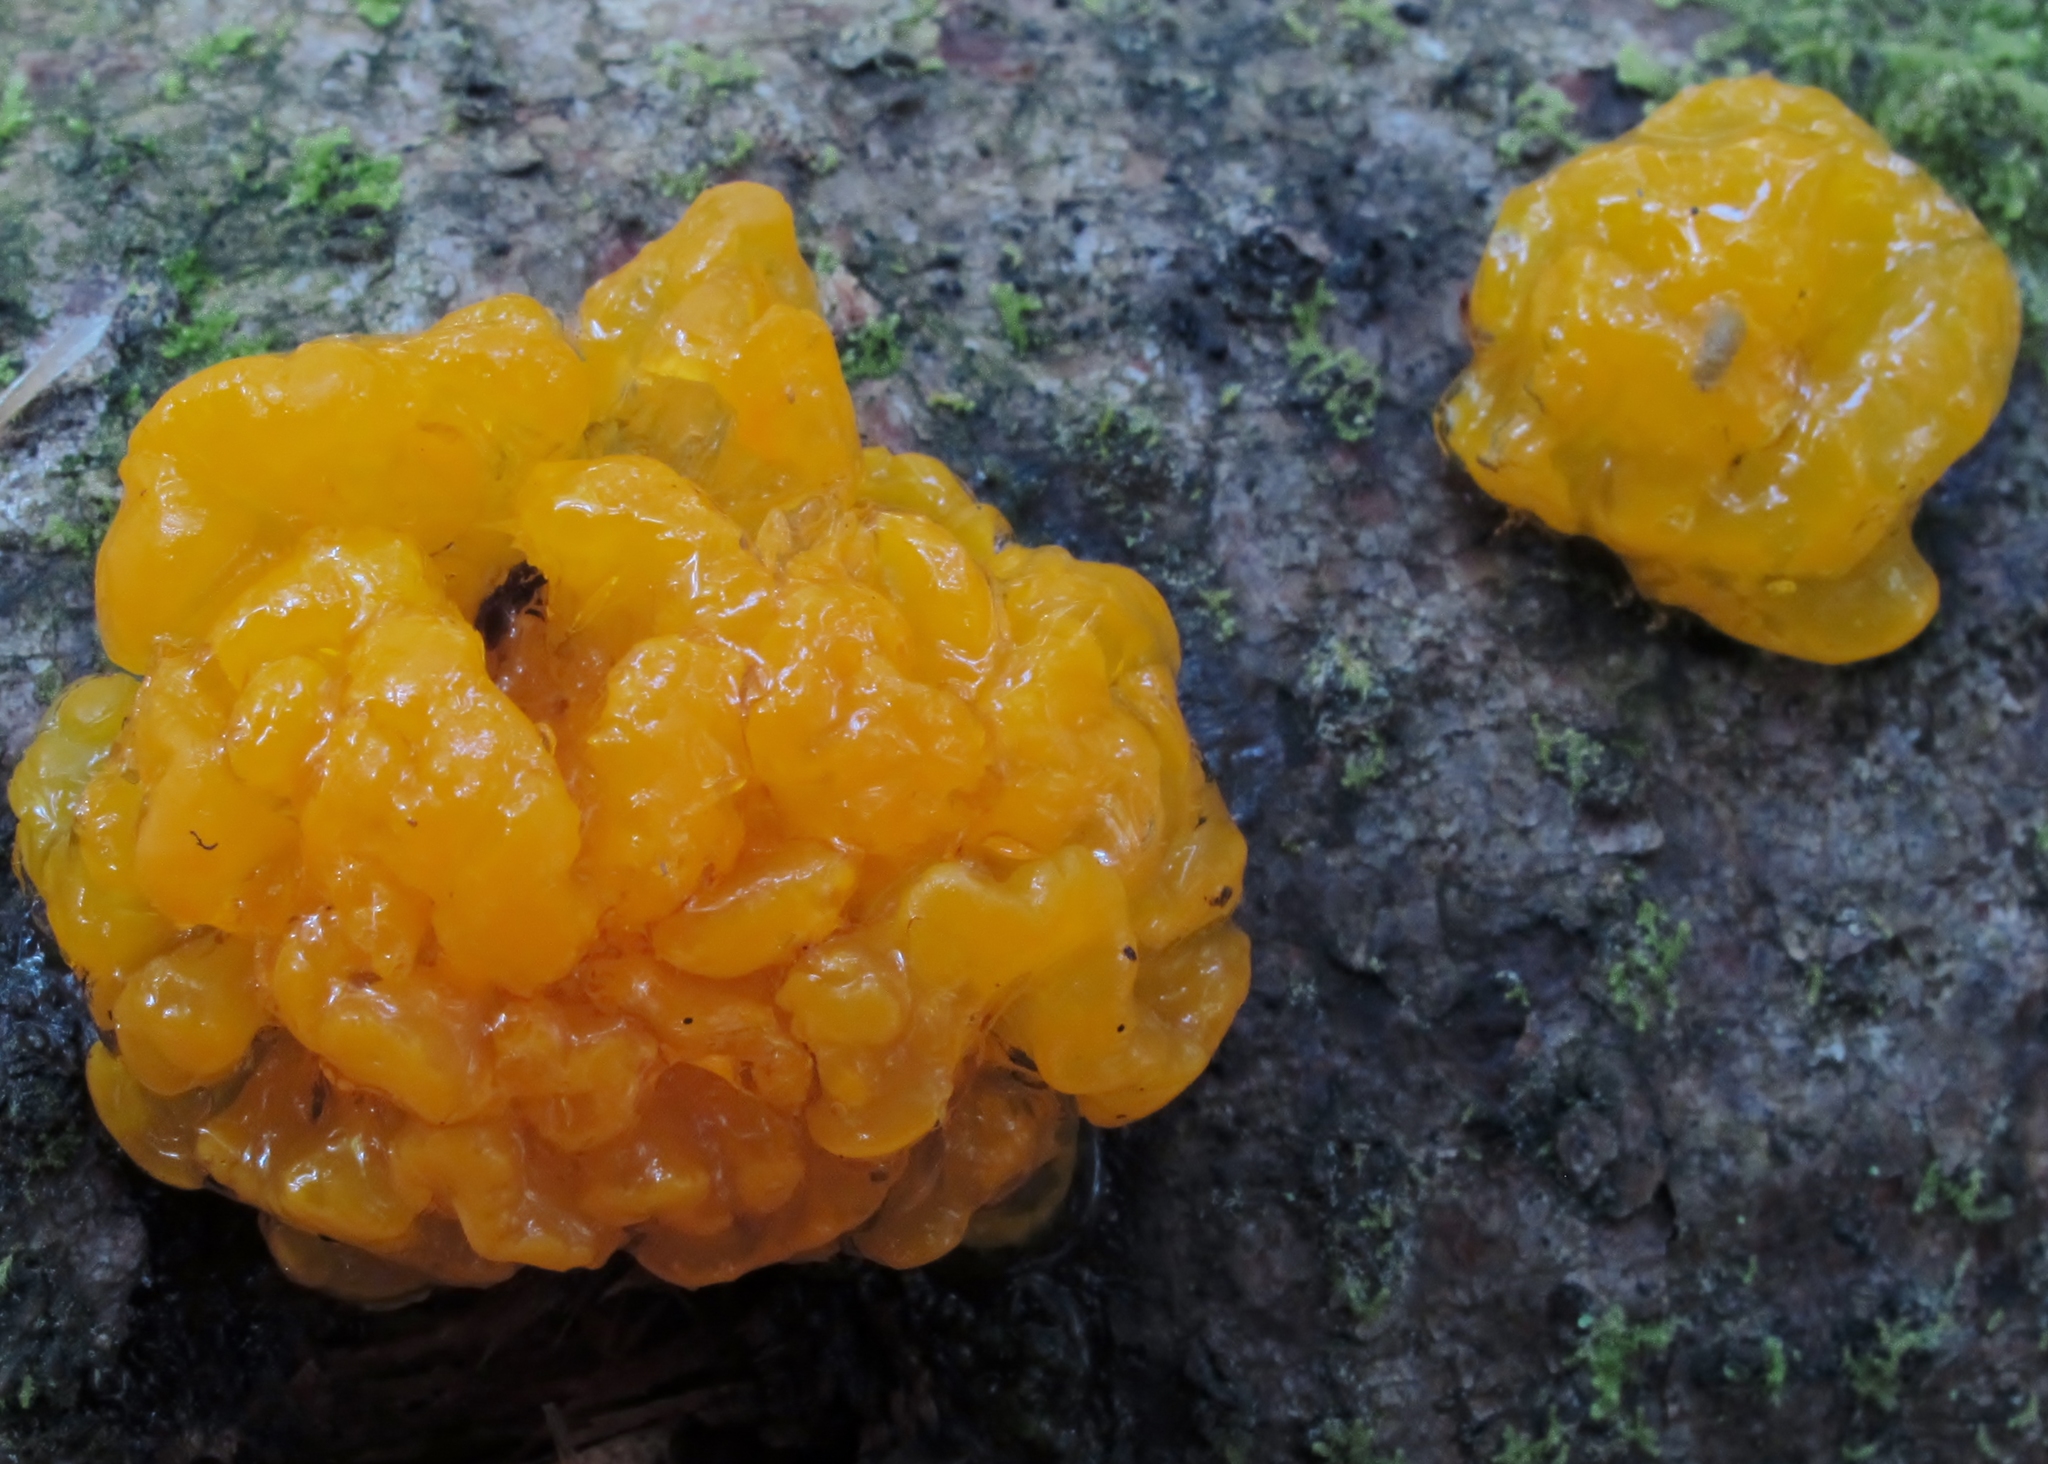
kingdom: Fungi
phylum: Basidiomycota
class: Dacrymycetes
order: Dacrymycetales
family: Dacrymycetaceae
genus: Dacrymyces
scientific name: Dacrymyces chrysospermus
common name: Orange jelly spot
